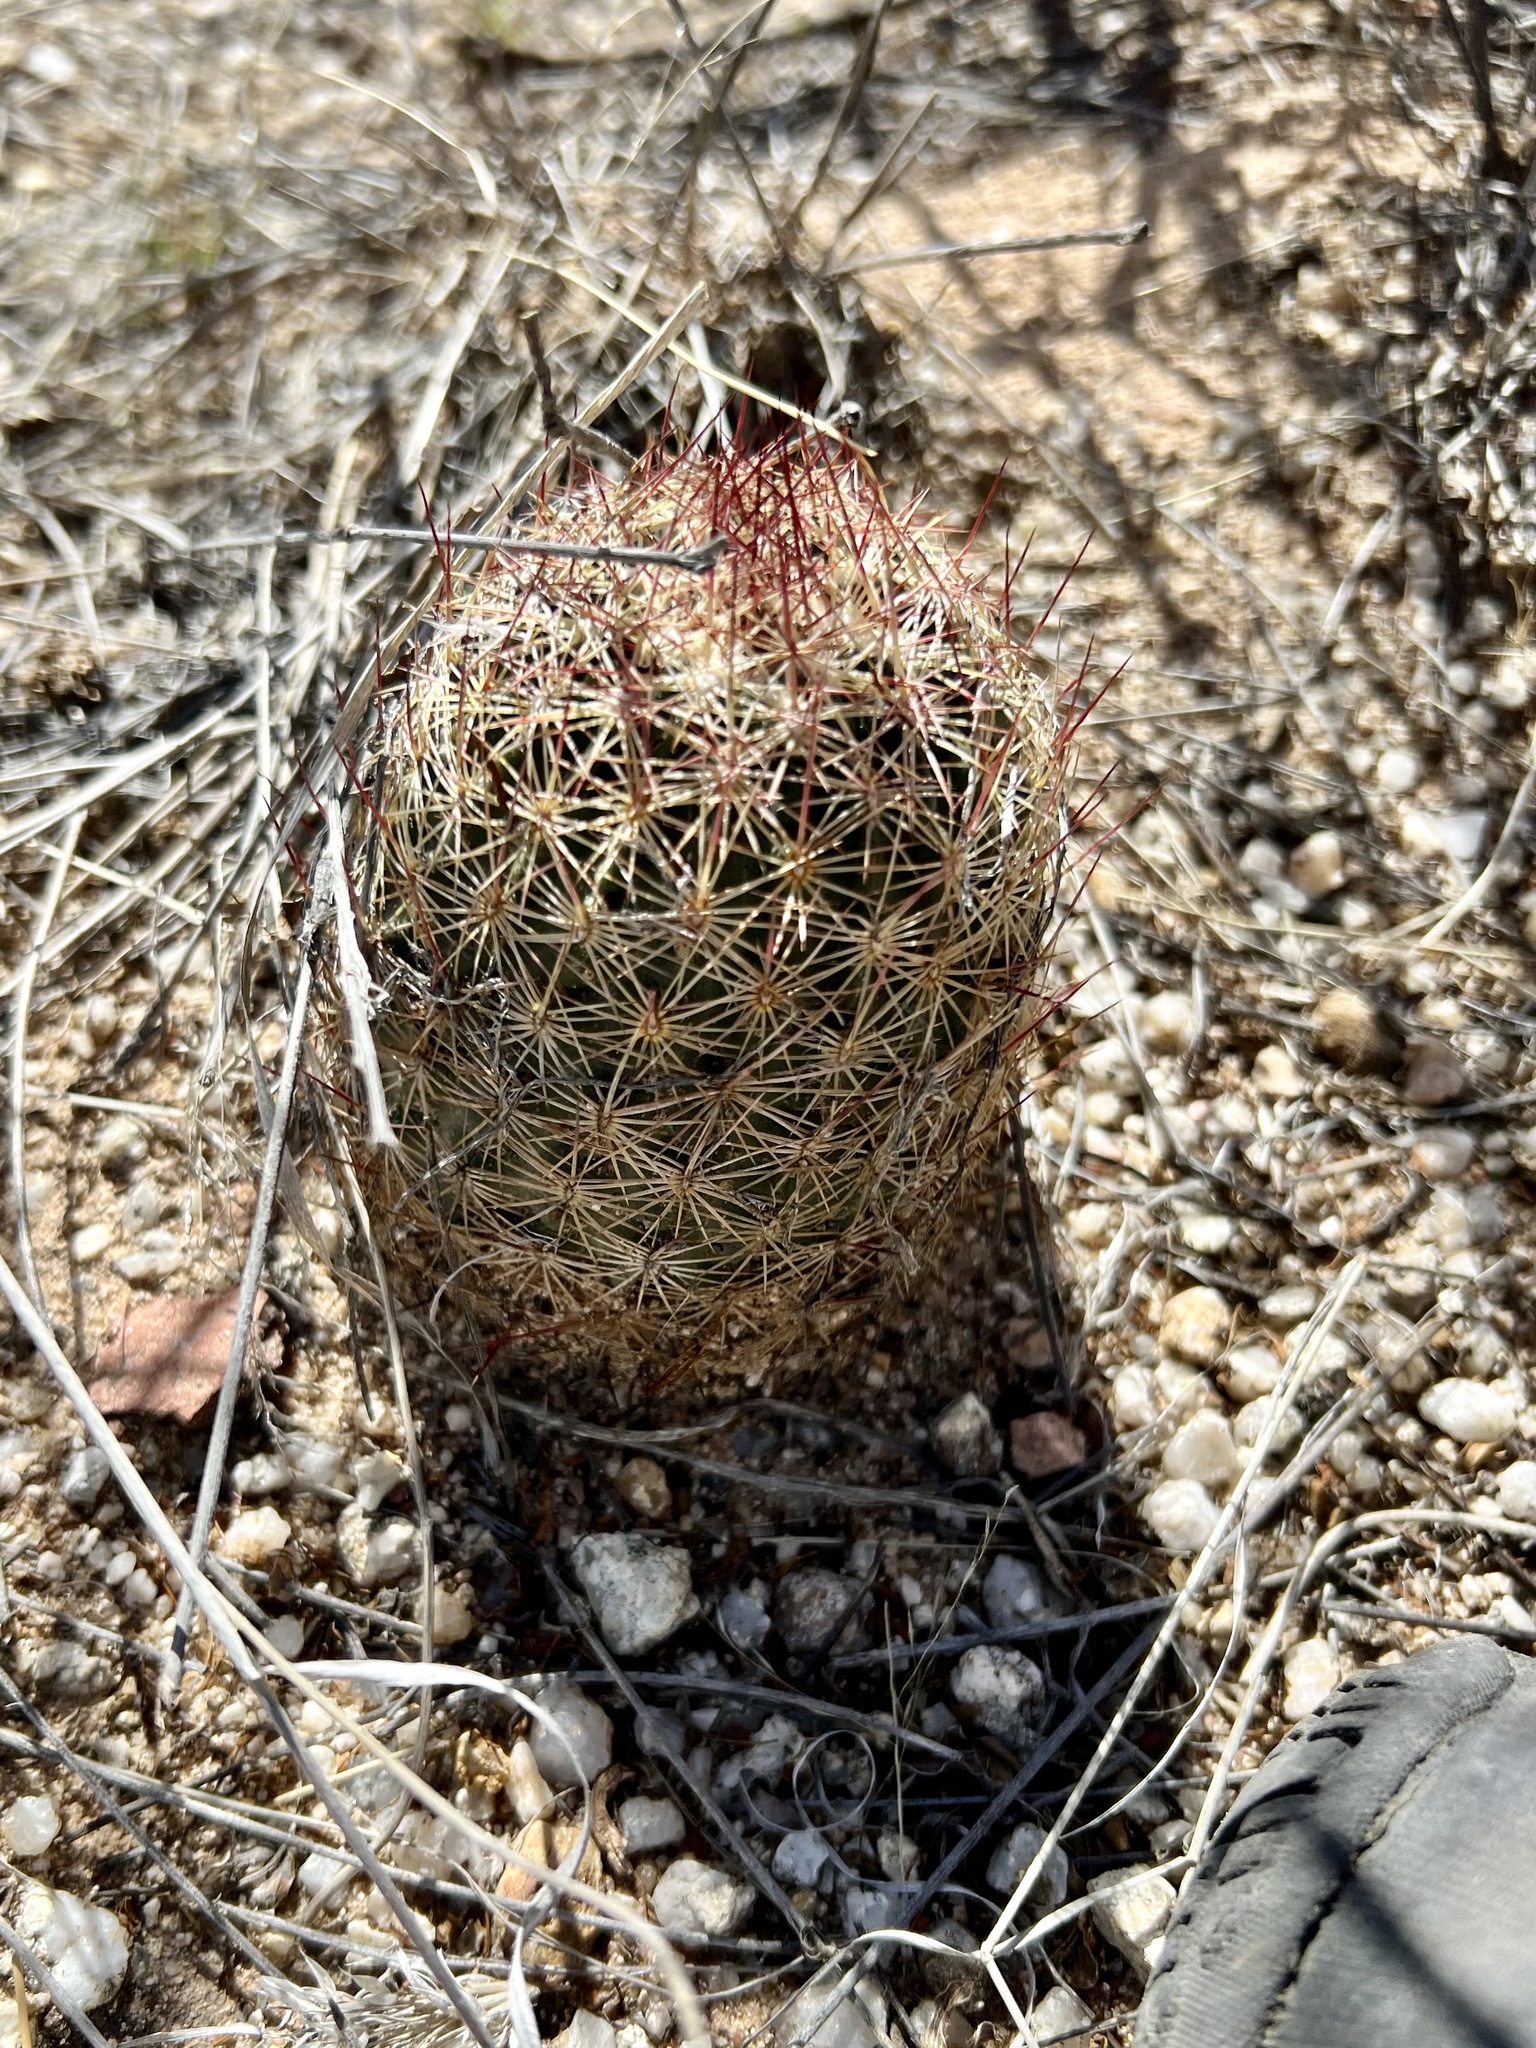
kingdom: Plantae
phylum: Tracheophyta
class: Magnoliopsida
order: Caryophyllales
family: Cactaceae
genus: Sclerocactus
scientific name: Sclerocactus johnsonii
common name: Eight-spine fishhook cactus
